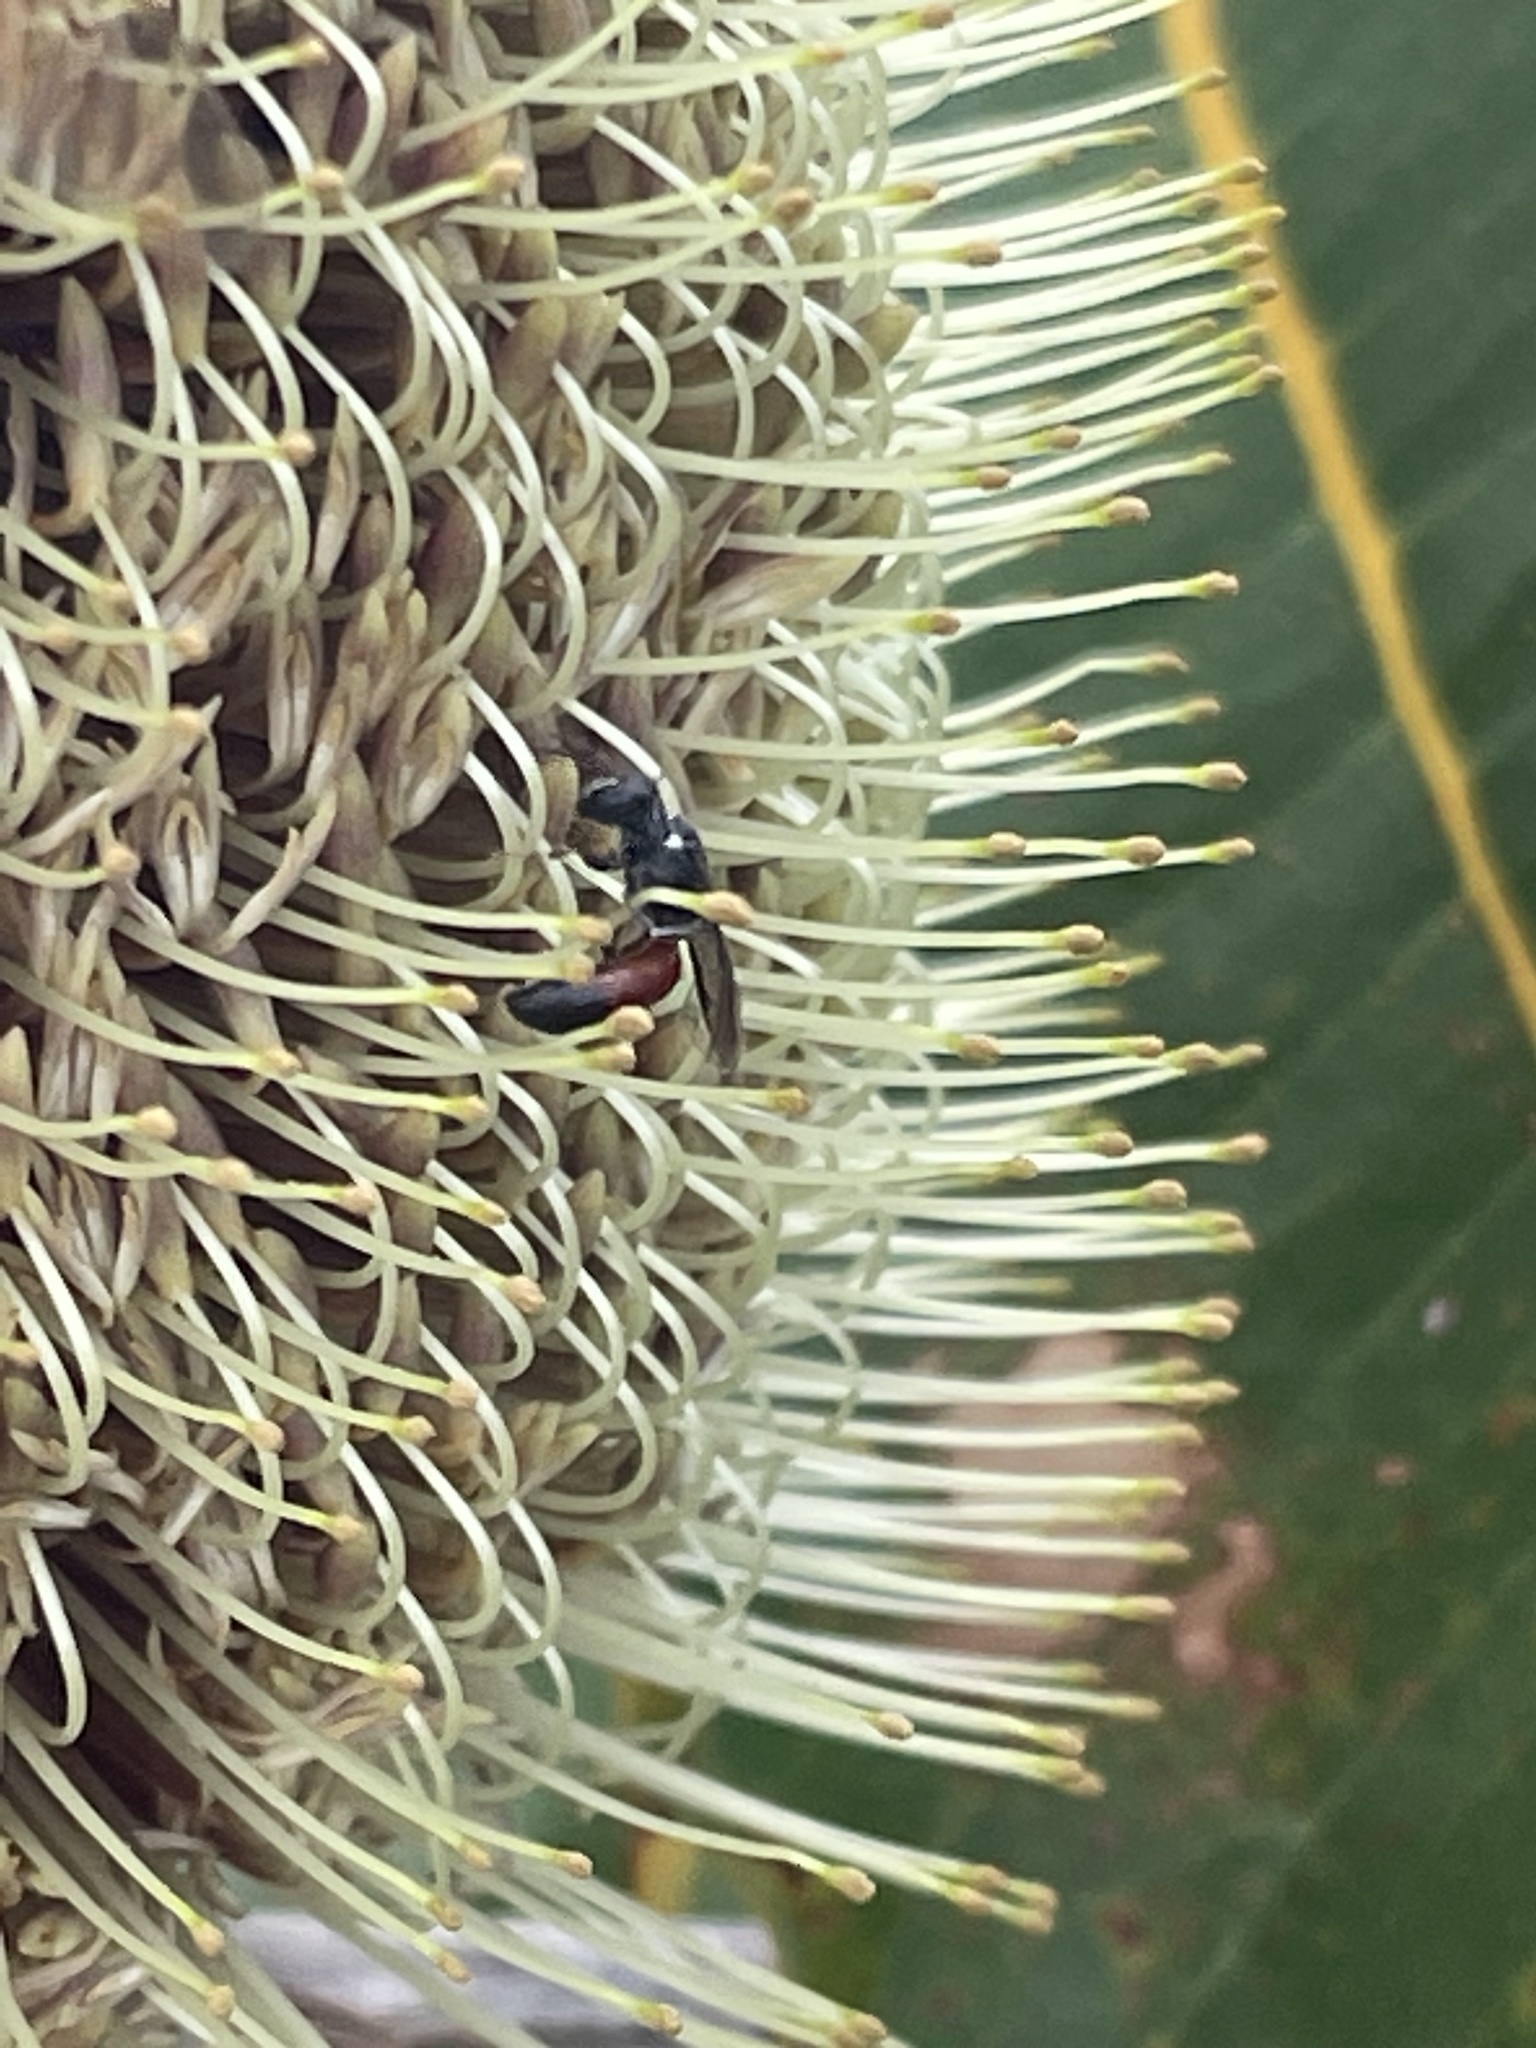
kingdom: Animalia
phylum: Arthropoda
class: Insecta
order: Hymenoptera
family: Colletidae
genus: Hylaeus
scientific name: Hylaeus littleri
